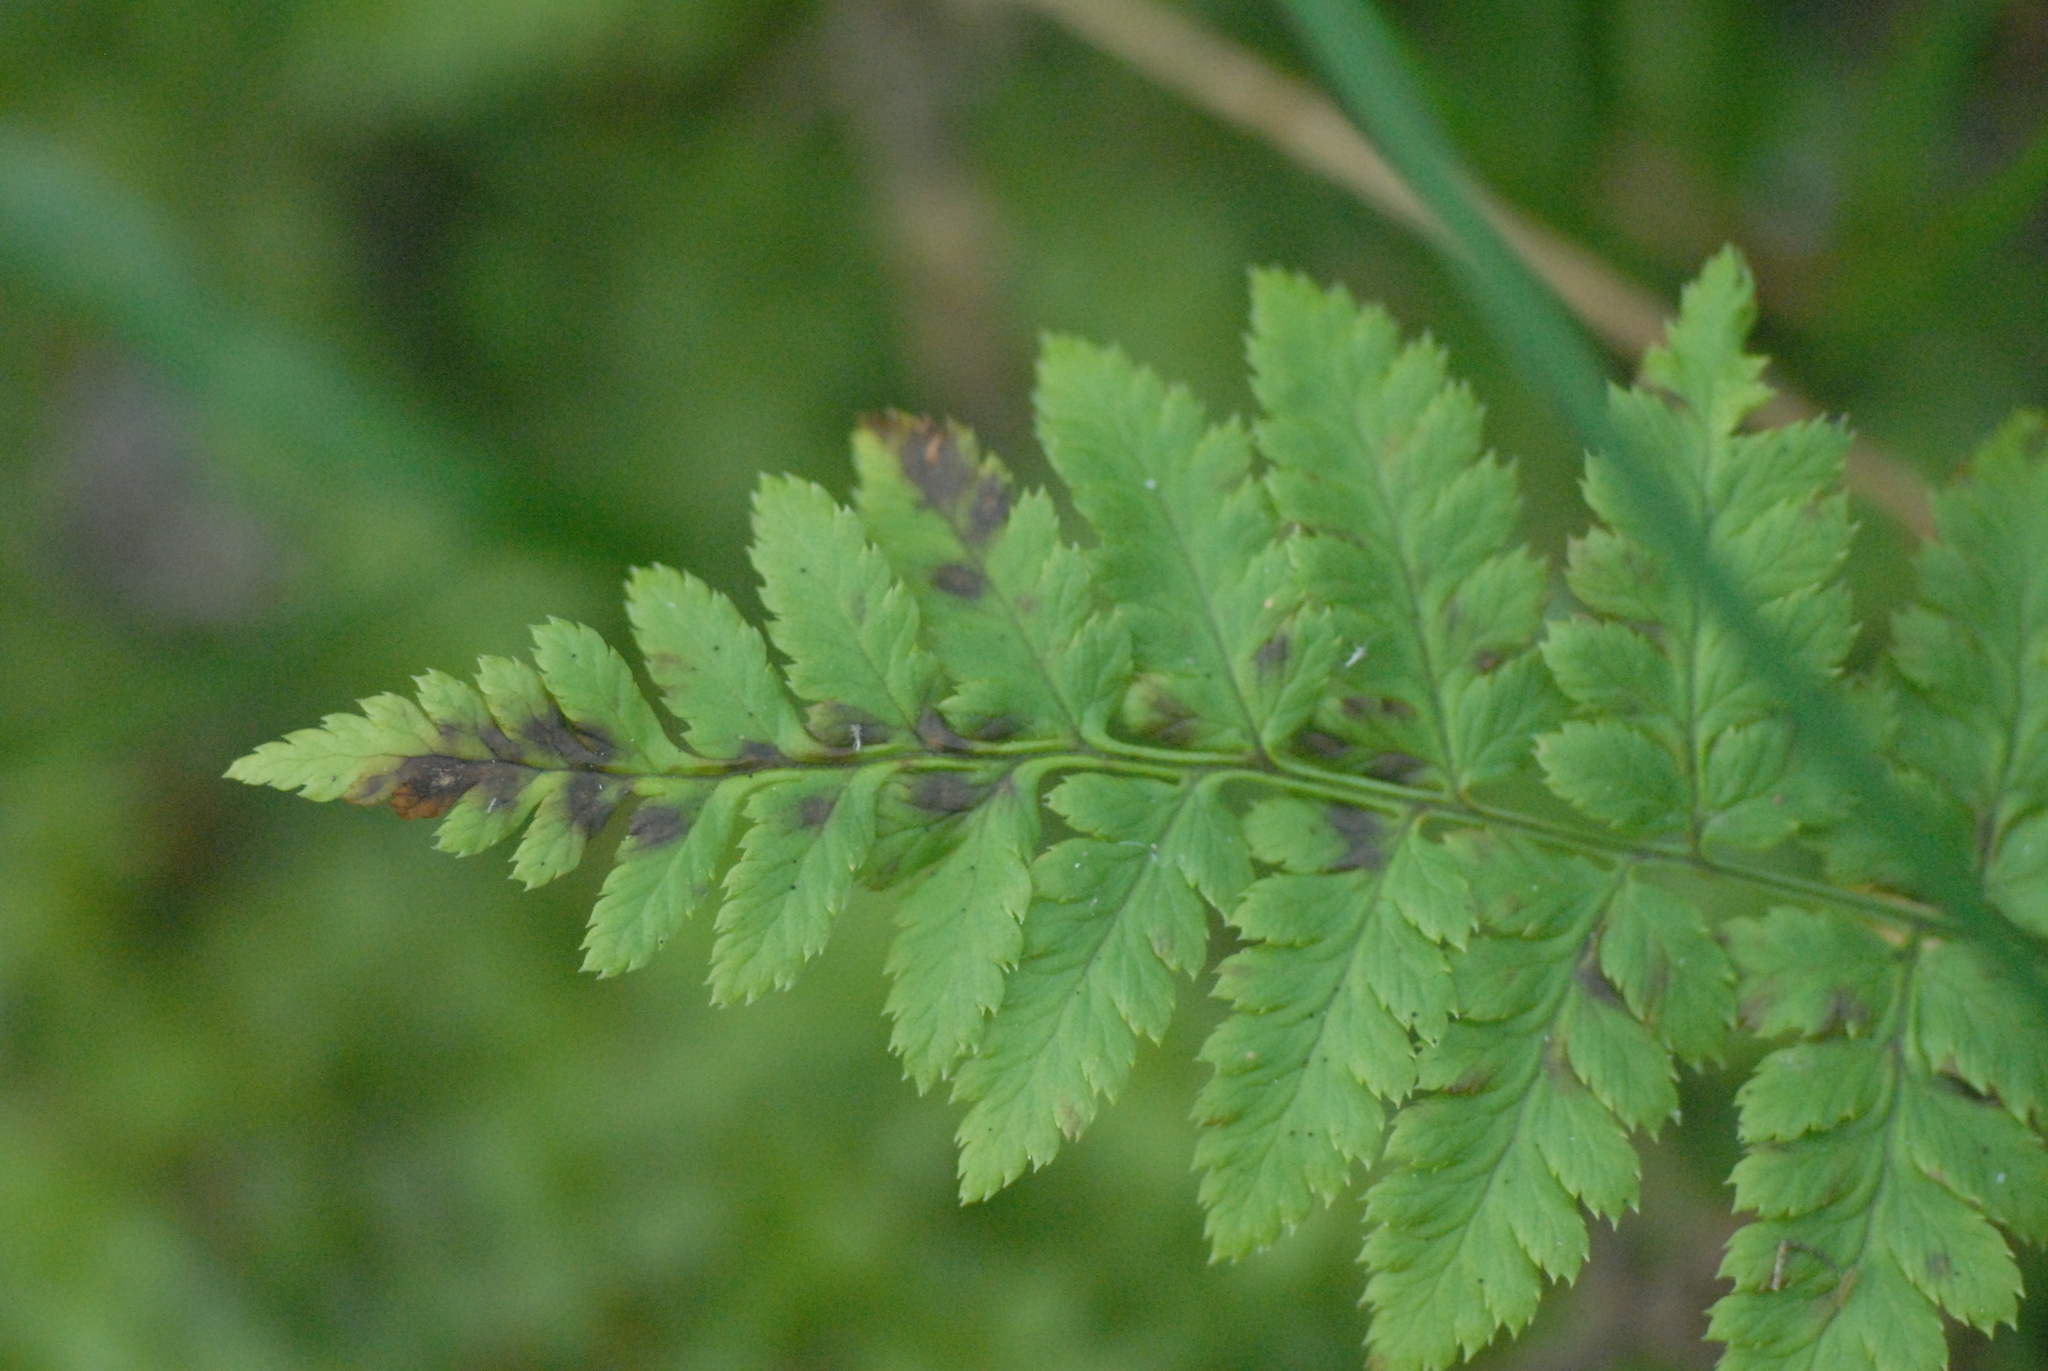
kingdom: Plantae
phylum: Tracheophyta
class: Polypodiopsida
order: Polypodiales
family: Dryopteridaceae
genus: Dryopteris
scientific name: Dryopteris carthusiana
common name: Narrow buckler-fern
